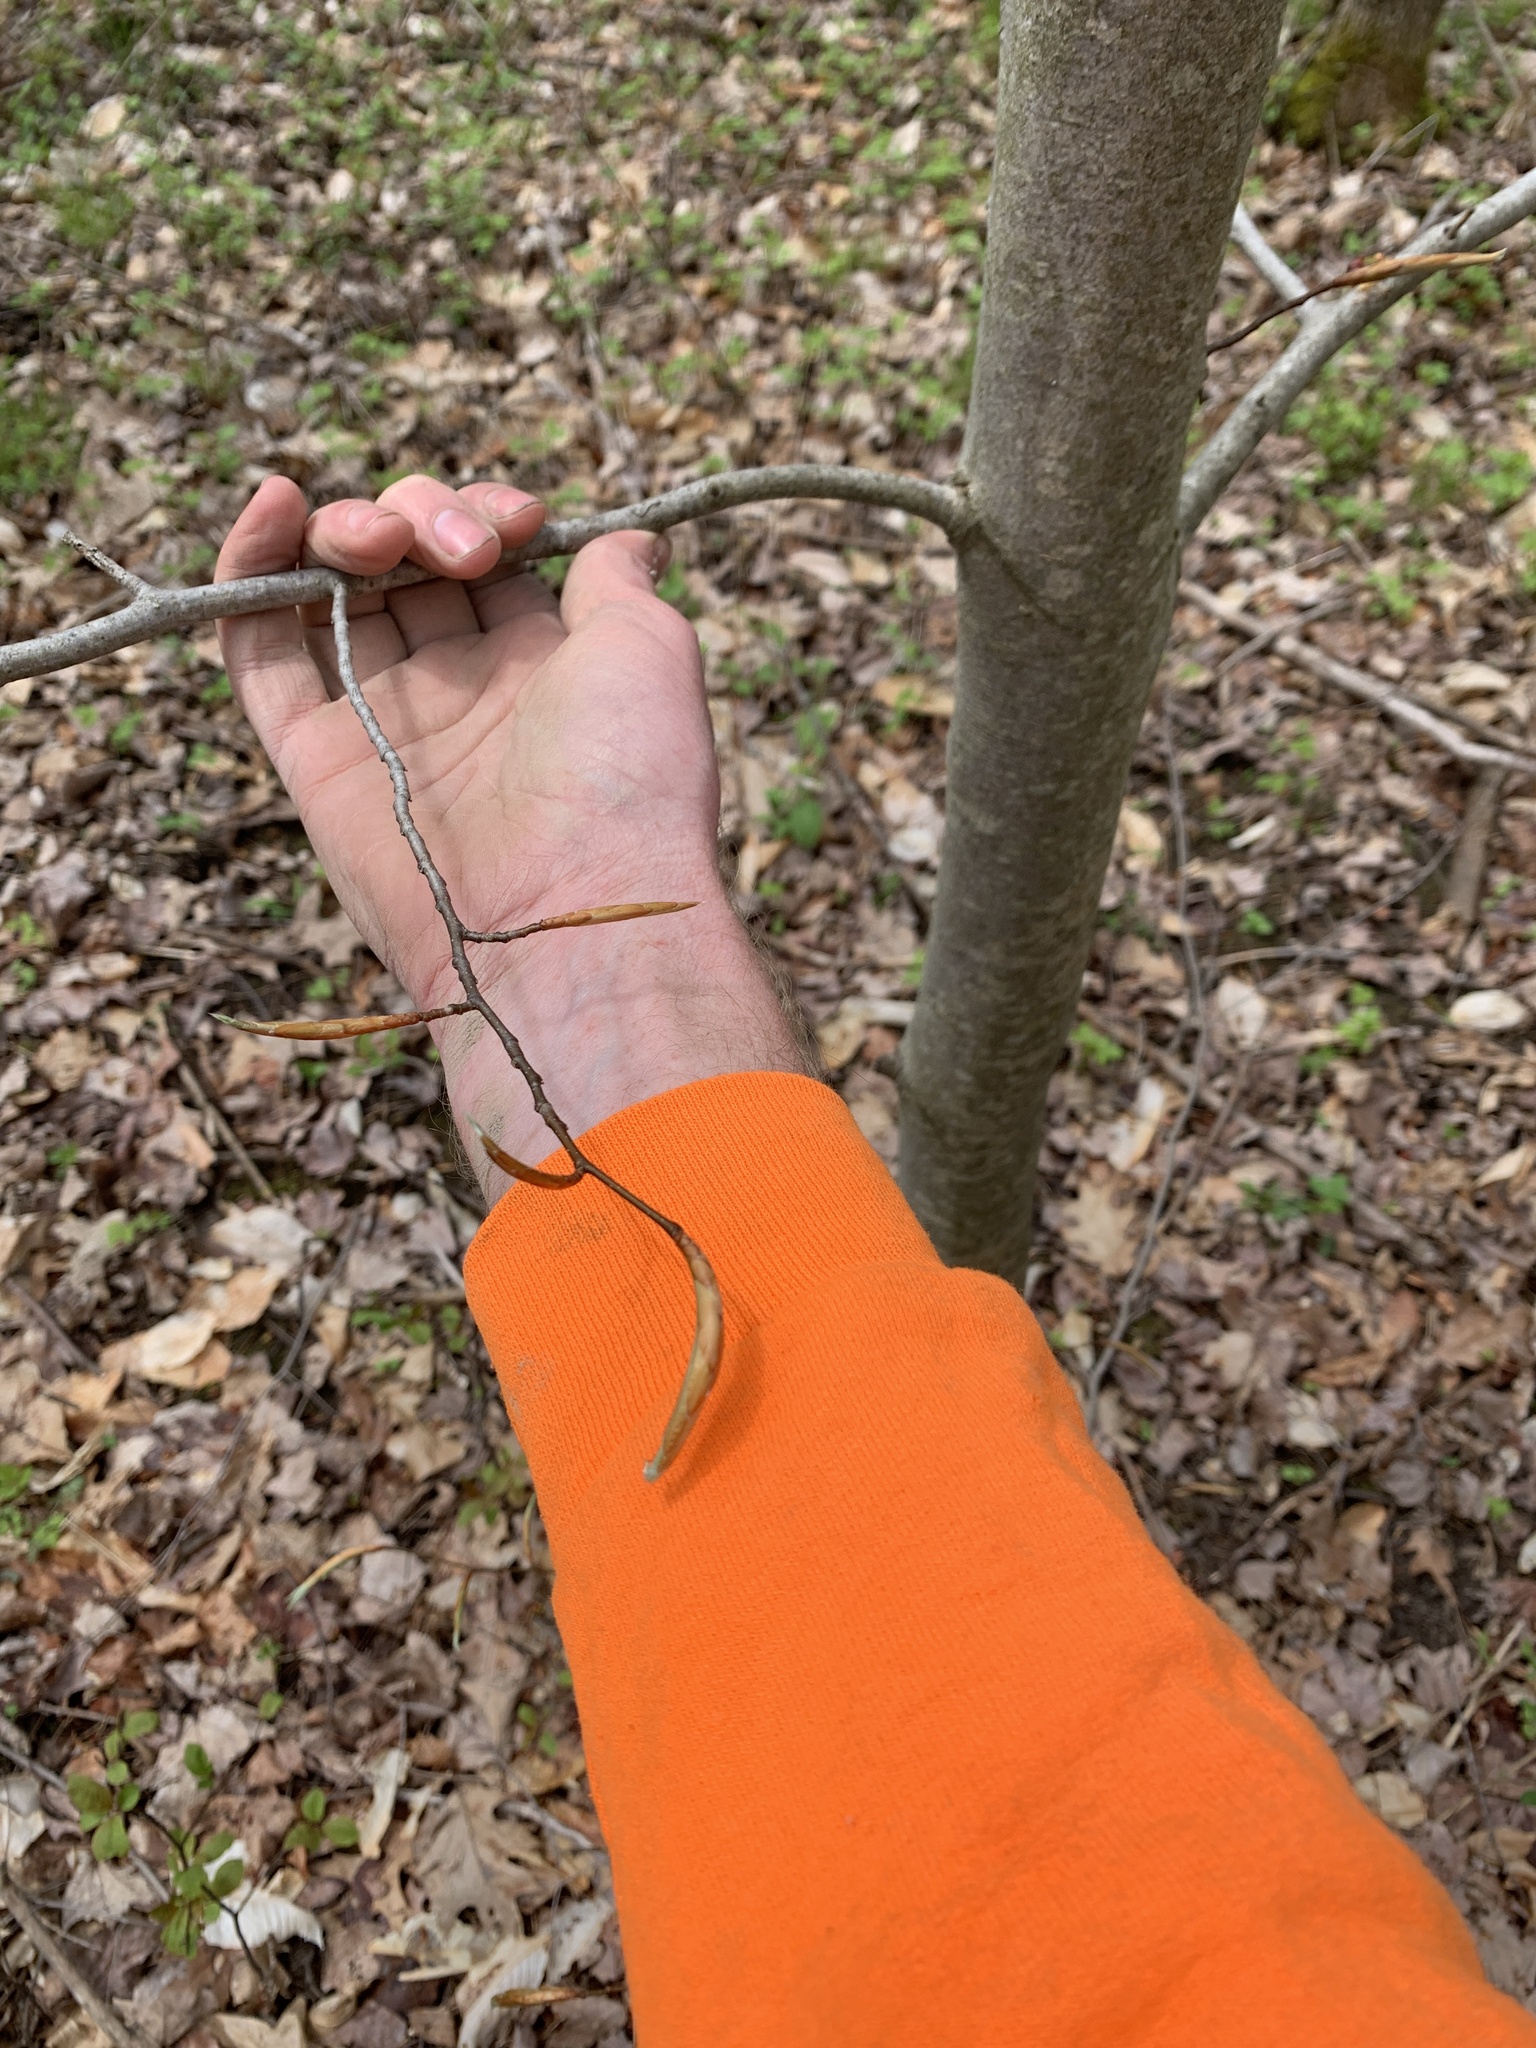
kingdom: Plantae
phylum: Tracheophyta
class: Magnoliopsida
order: Fagales
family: Fagaceae
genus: Fagus
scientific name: Fagus grandifolia
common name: American beech
